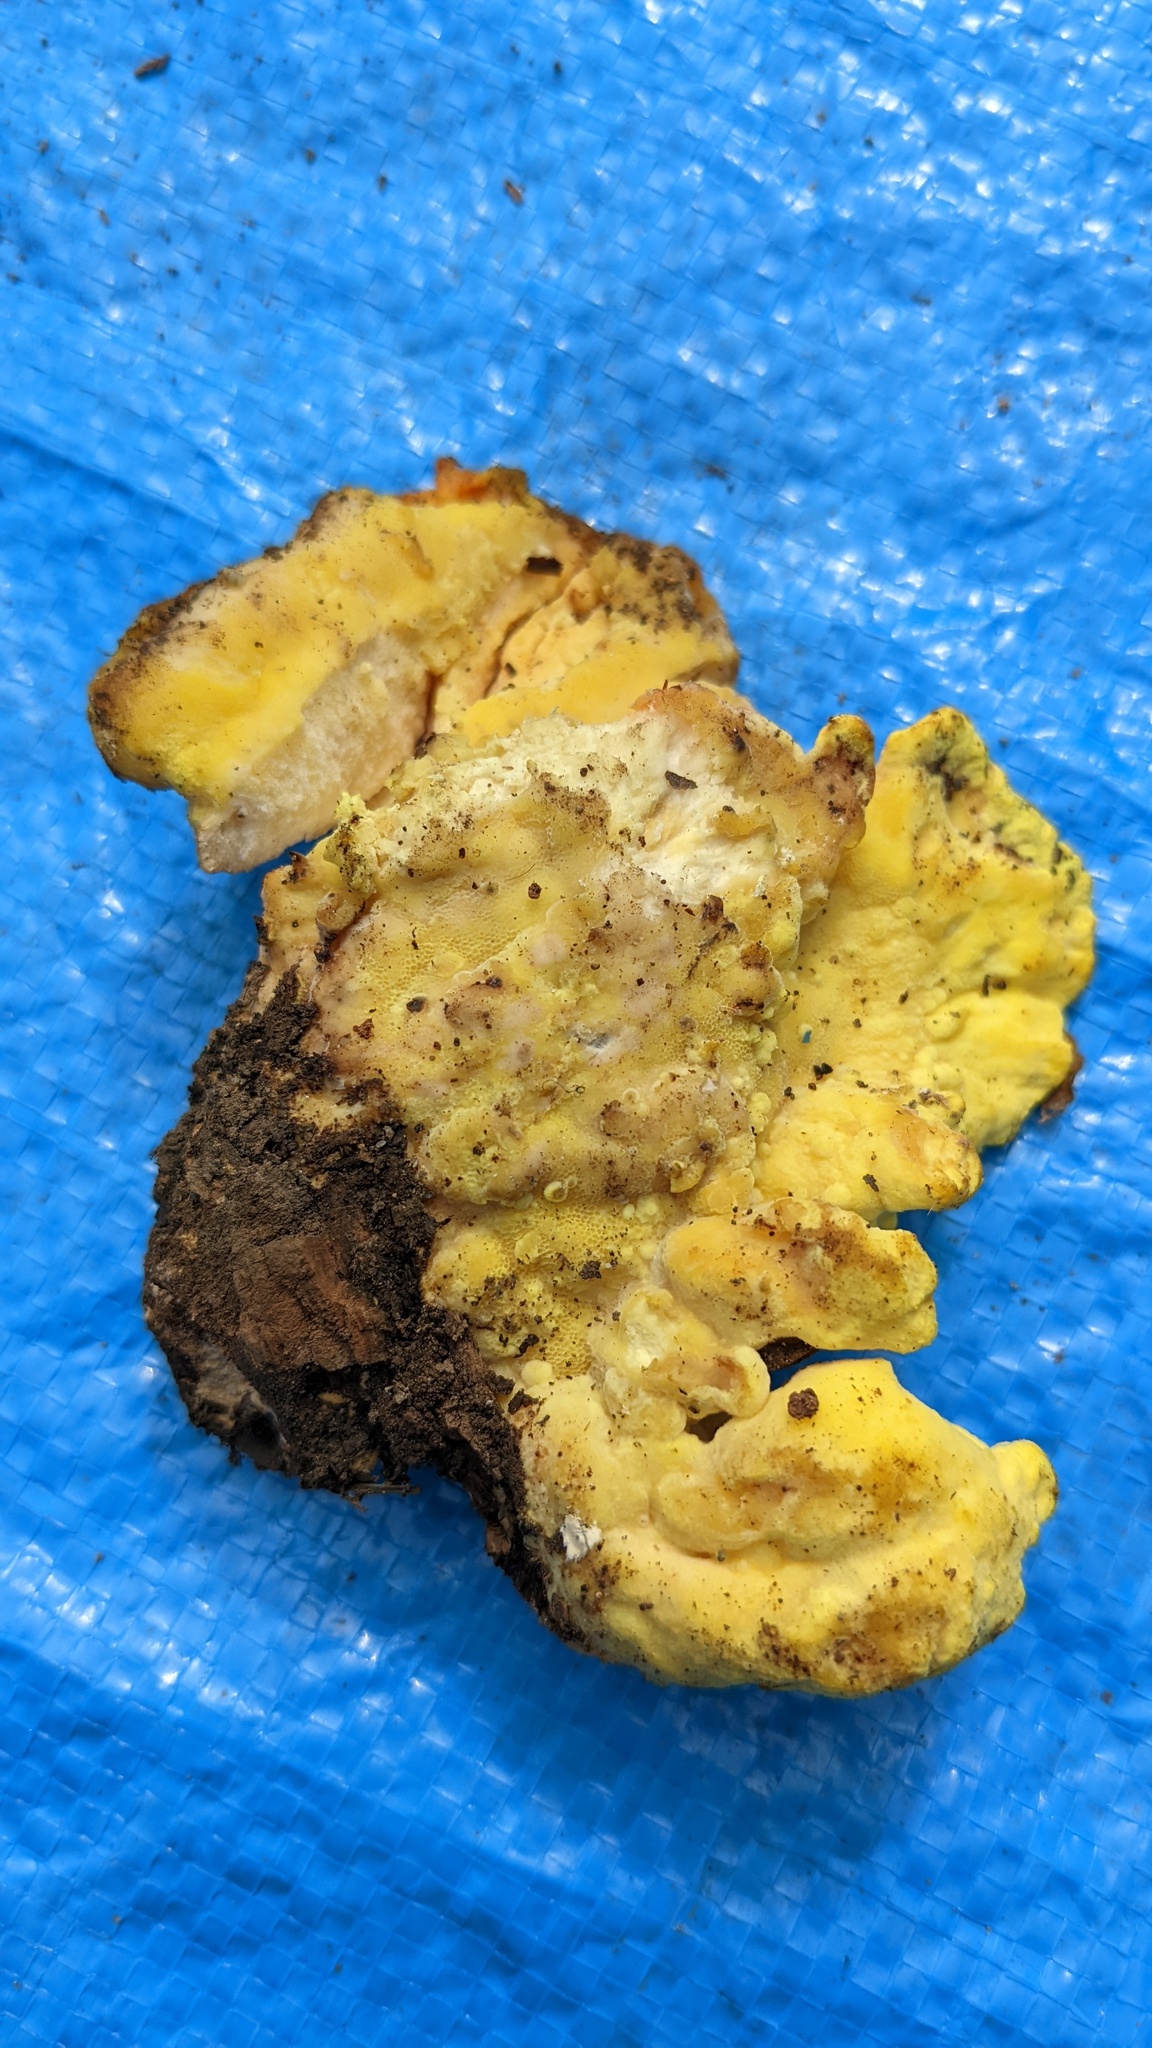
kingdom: Fungi
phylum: Basidiomycota
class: Agaricomycetes
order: Polyporales
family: Laetiporaceae
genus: Laetiporus
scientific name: Laetiporus sulphureus
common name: Chicken of the woods
